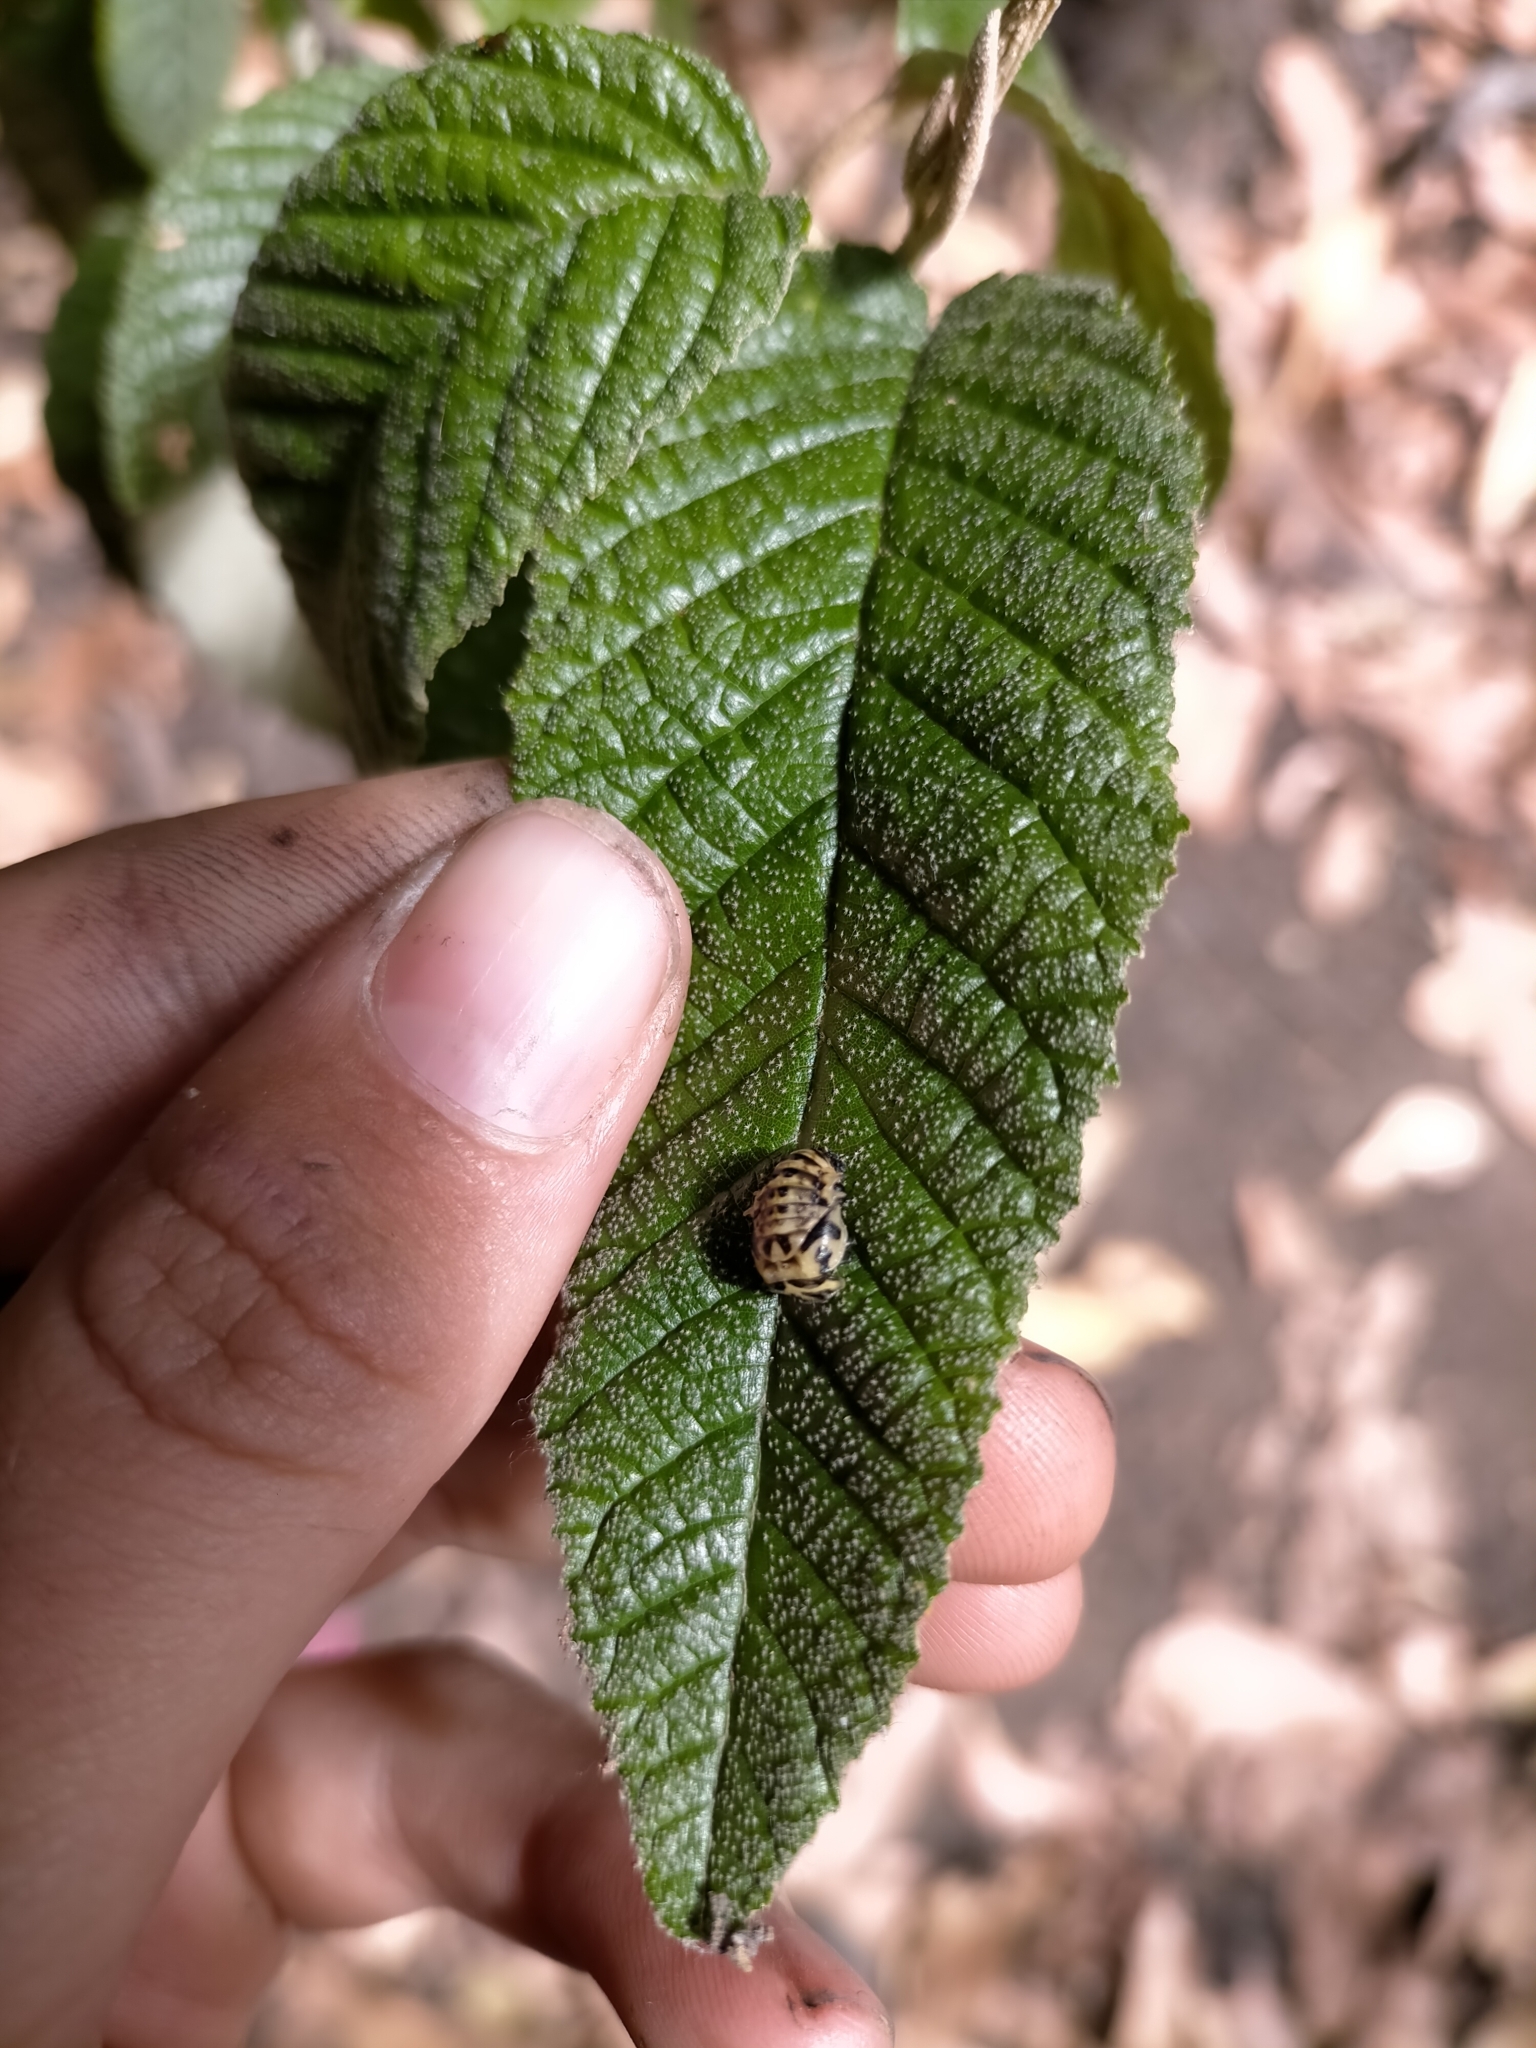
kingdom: Animalia
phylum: Arthropoda
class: Insecta
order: Coleoptera
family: Coccinellidae
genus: Cleobora
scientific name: Cleobora
